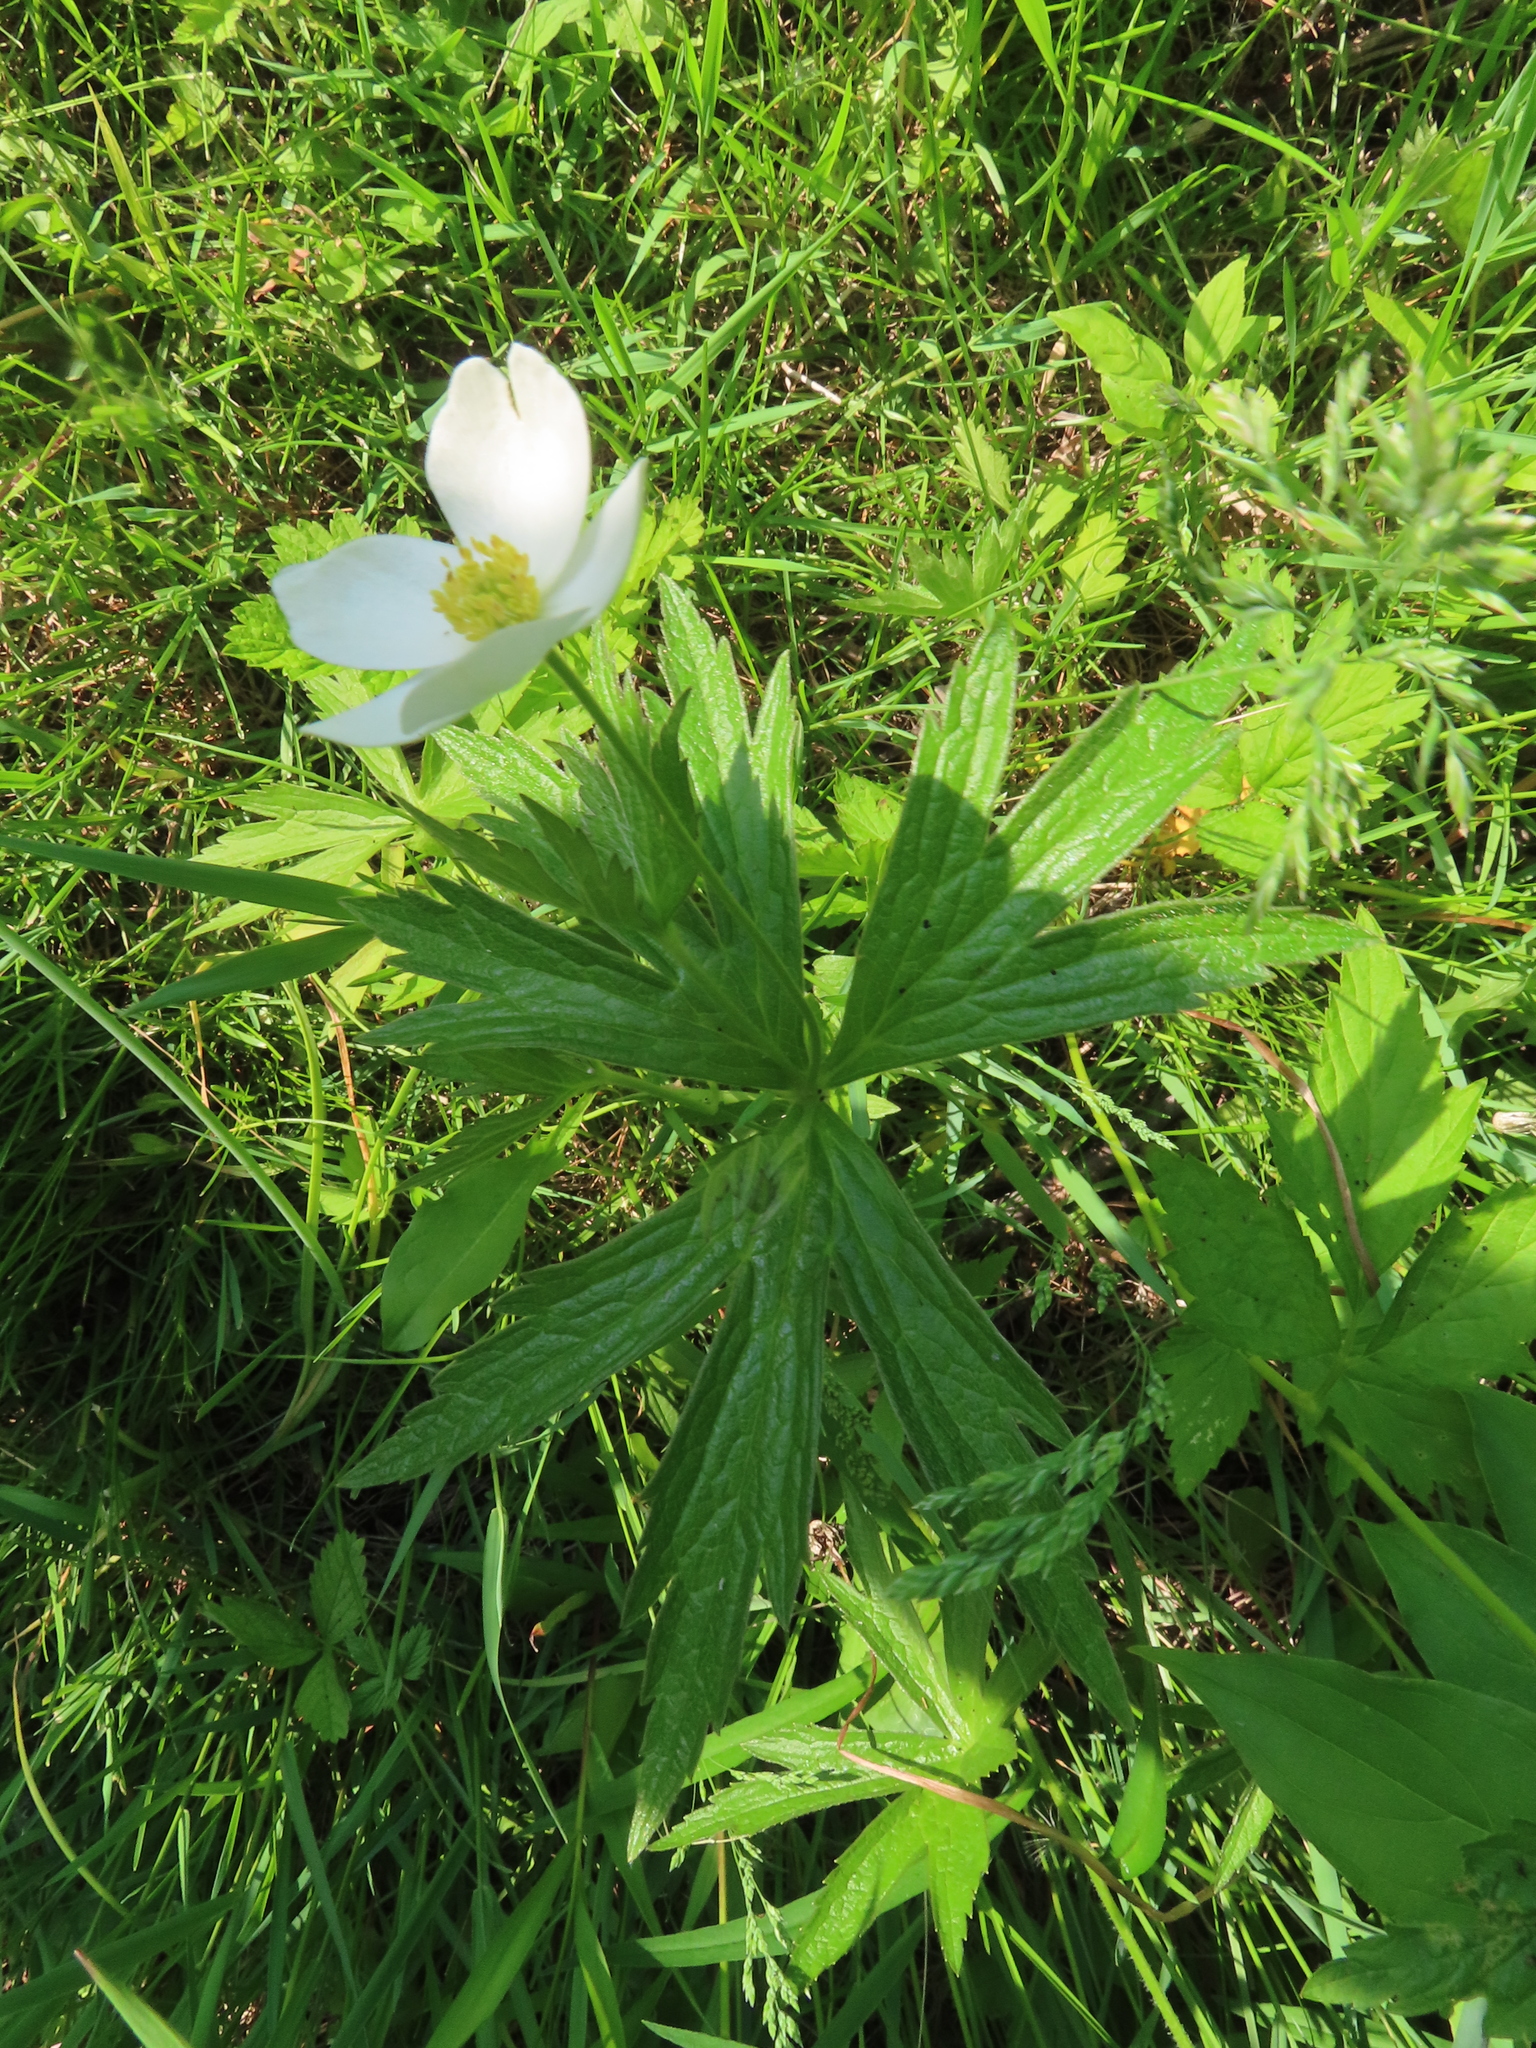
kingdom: Plantae
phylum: Tracheophyta
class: Magnoliopsida
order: Ranunculales
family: Ranunculaceae
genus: Anemonastrum
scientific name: Anemonastrum canadense
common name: Canada anemone
